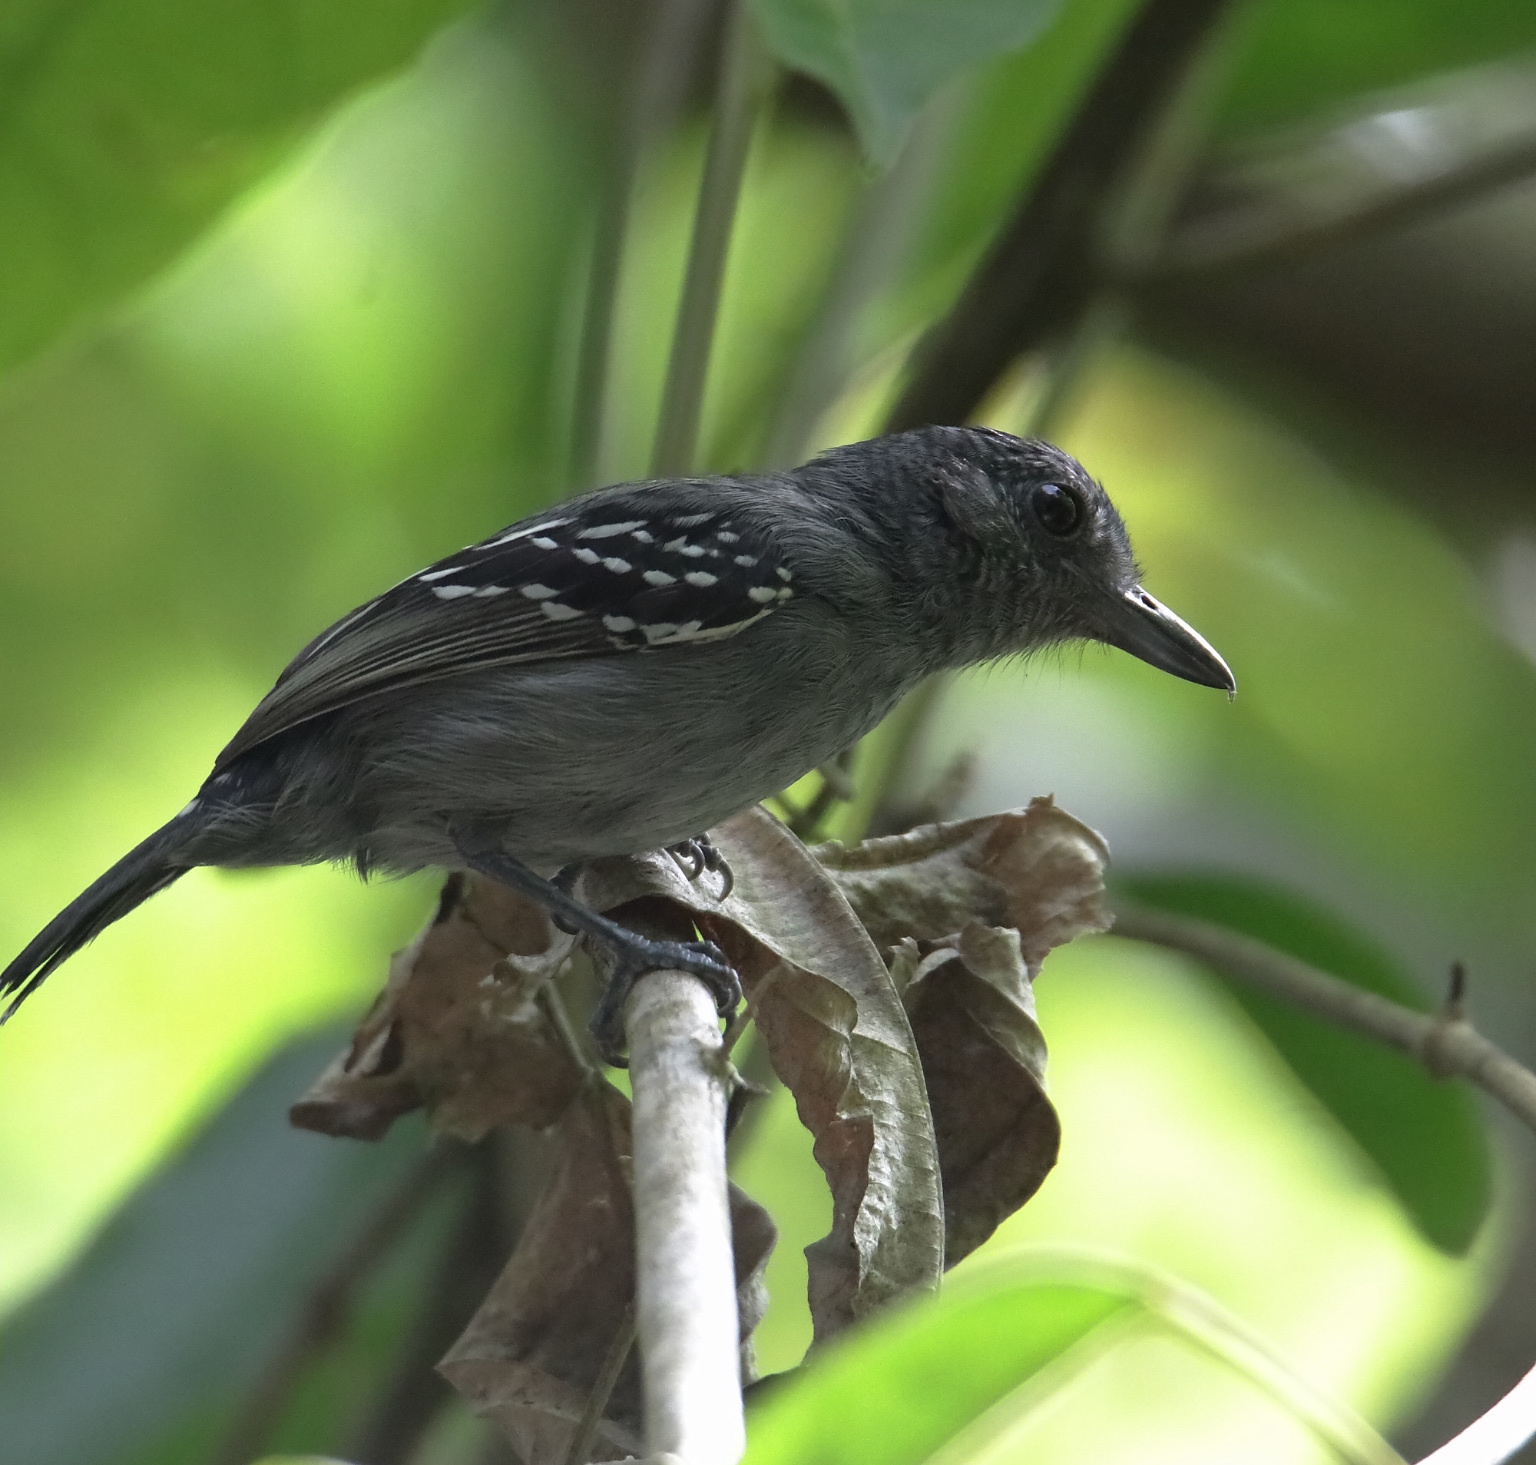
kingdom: Animalia
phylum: Chordata
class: Aves
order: Passeriformes
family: Thamnophilidae
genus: Thamnophilus
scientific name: Thamnophilus atrinucha
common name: Black-crowned antshrike
